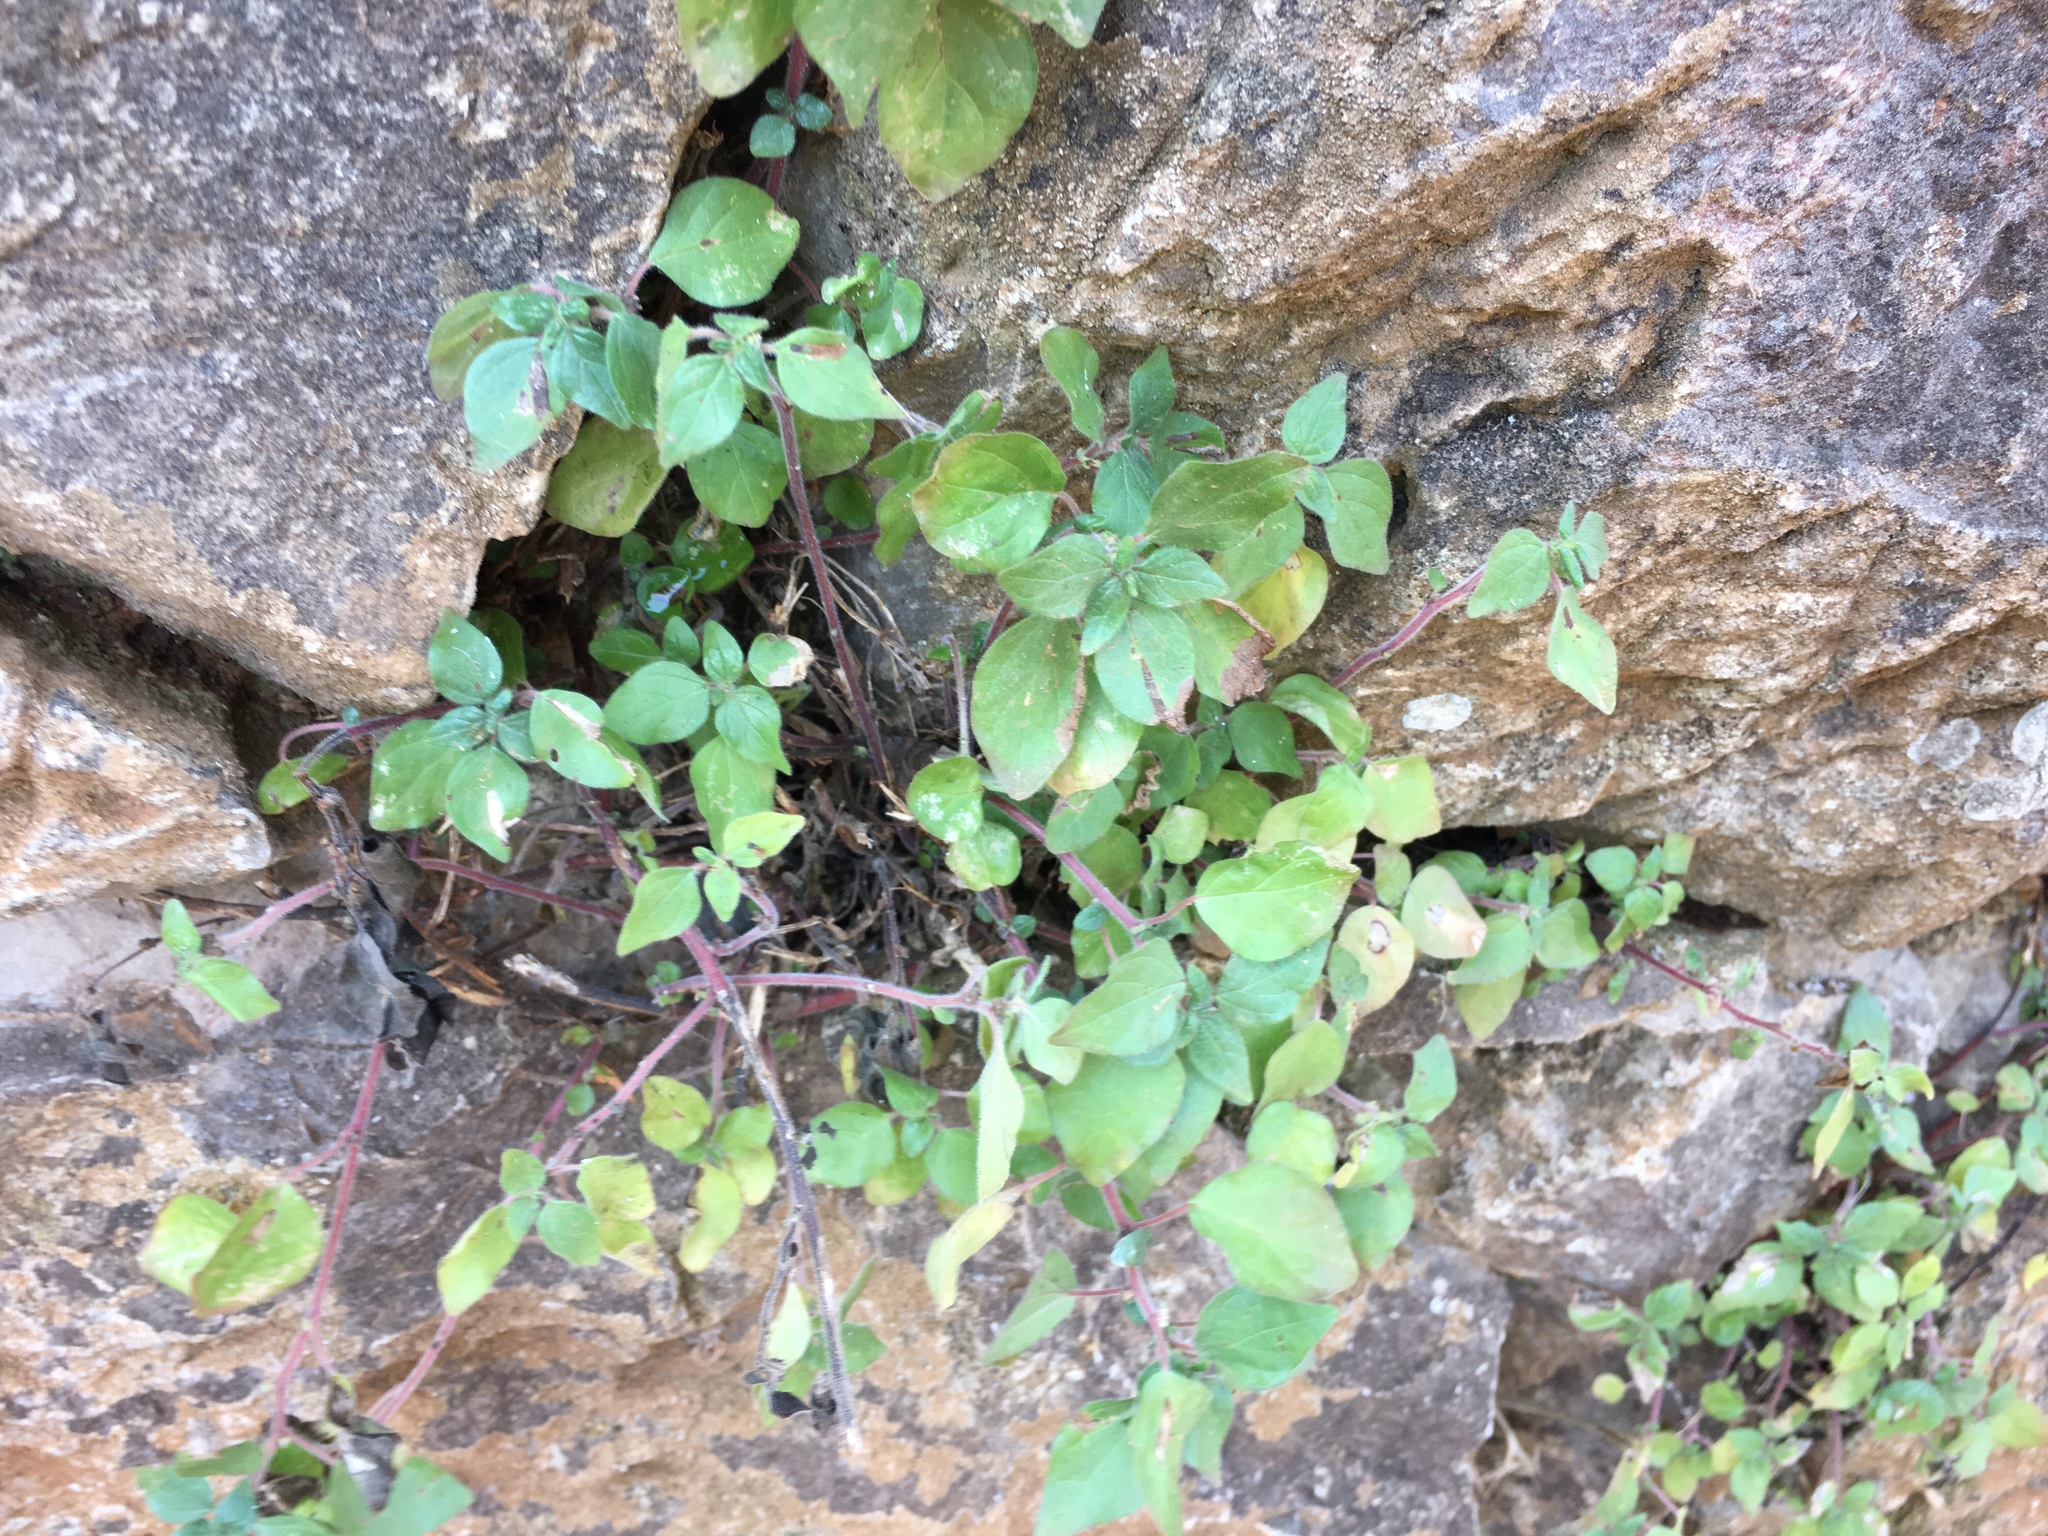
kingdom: Plantae
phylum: Tracheophyta
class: Magnoliopsida
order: Rosales
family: Urticaceae
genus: Parietaria
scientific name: Parietaria judaica
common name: Pellitory-of-the-wall
